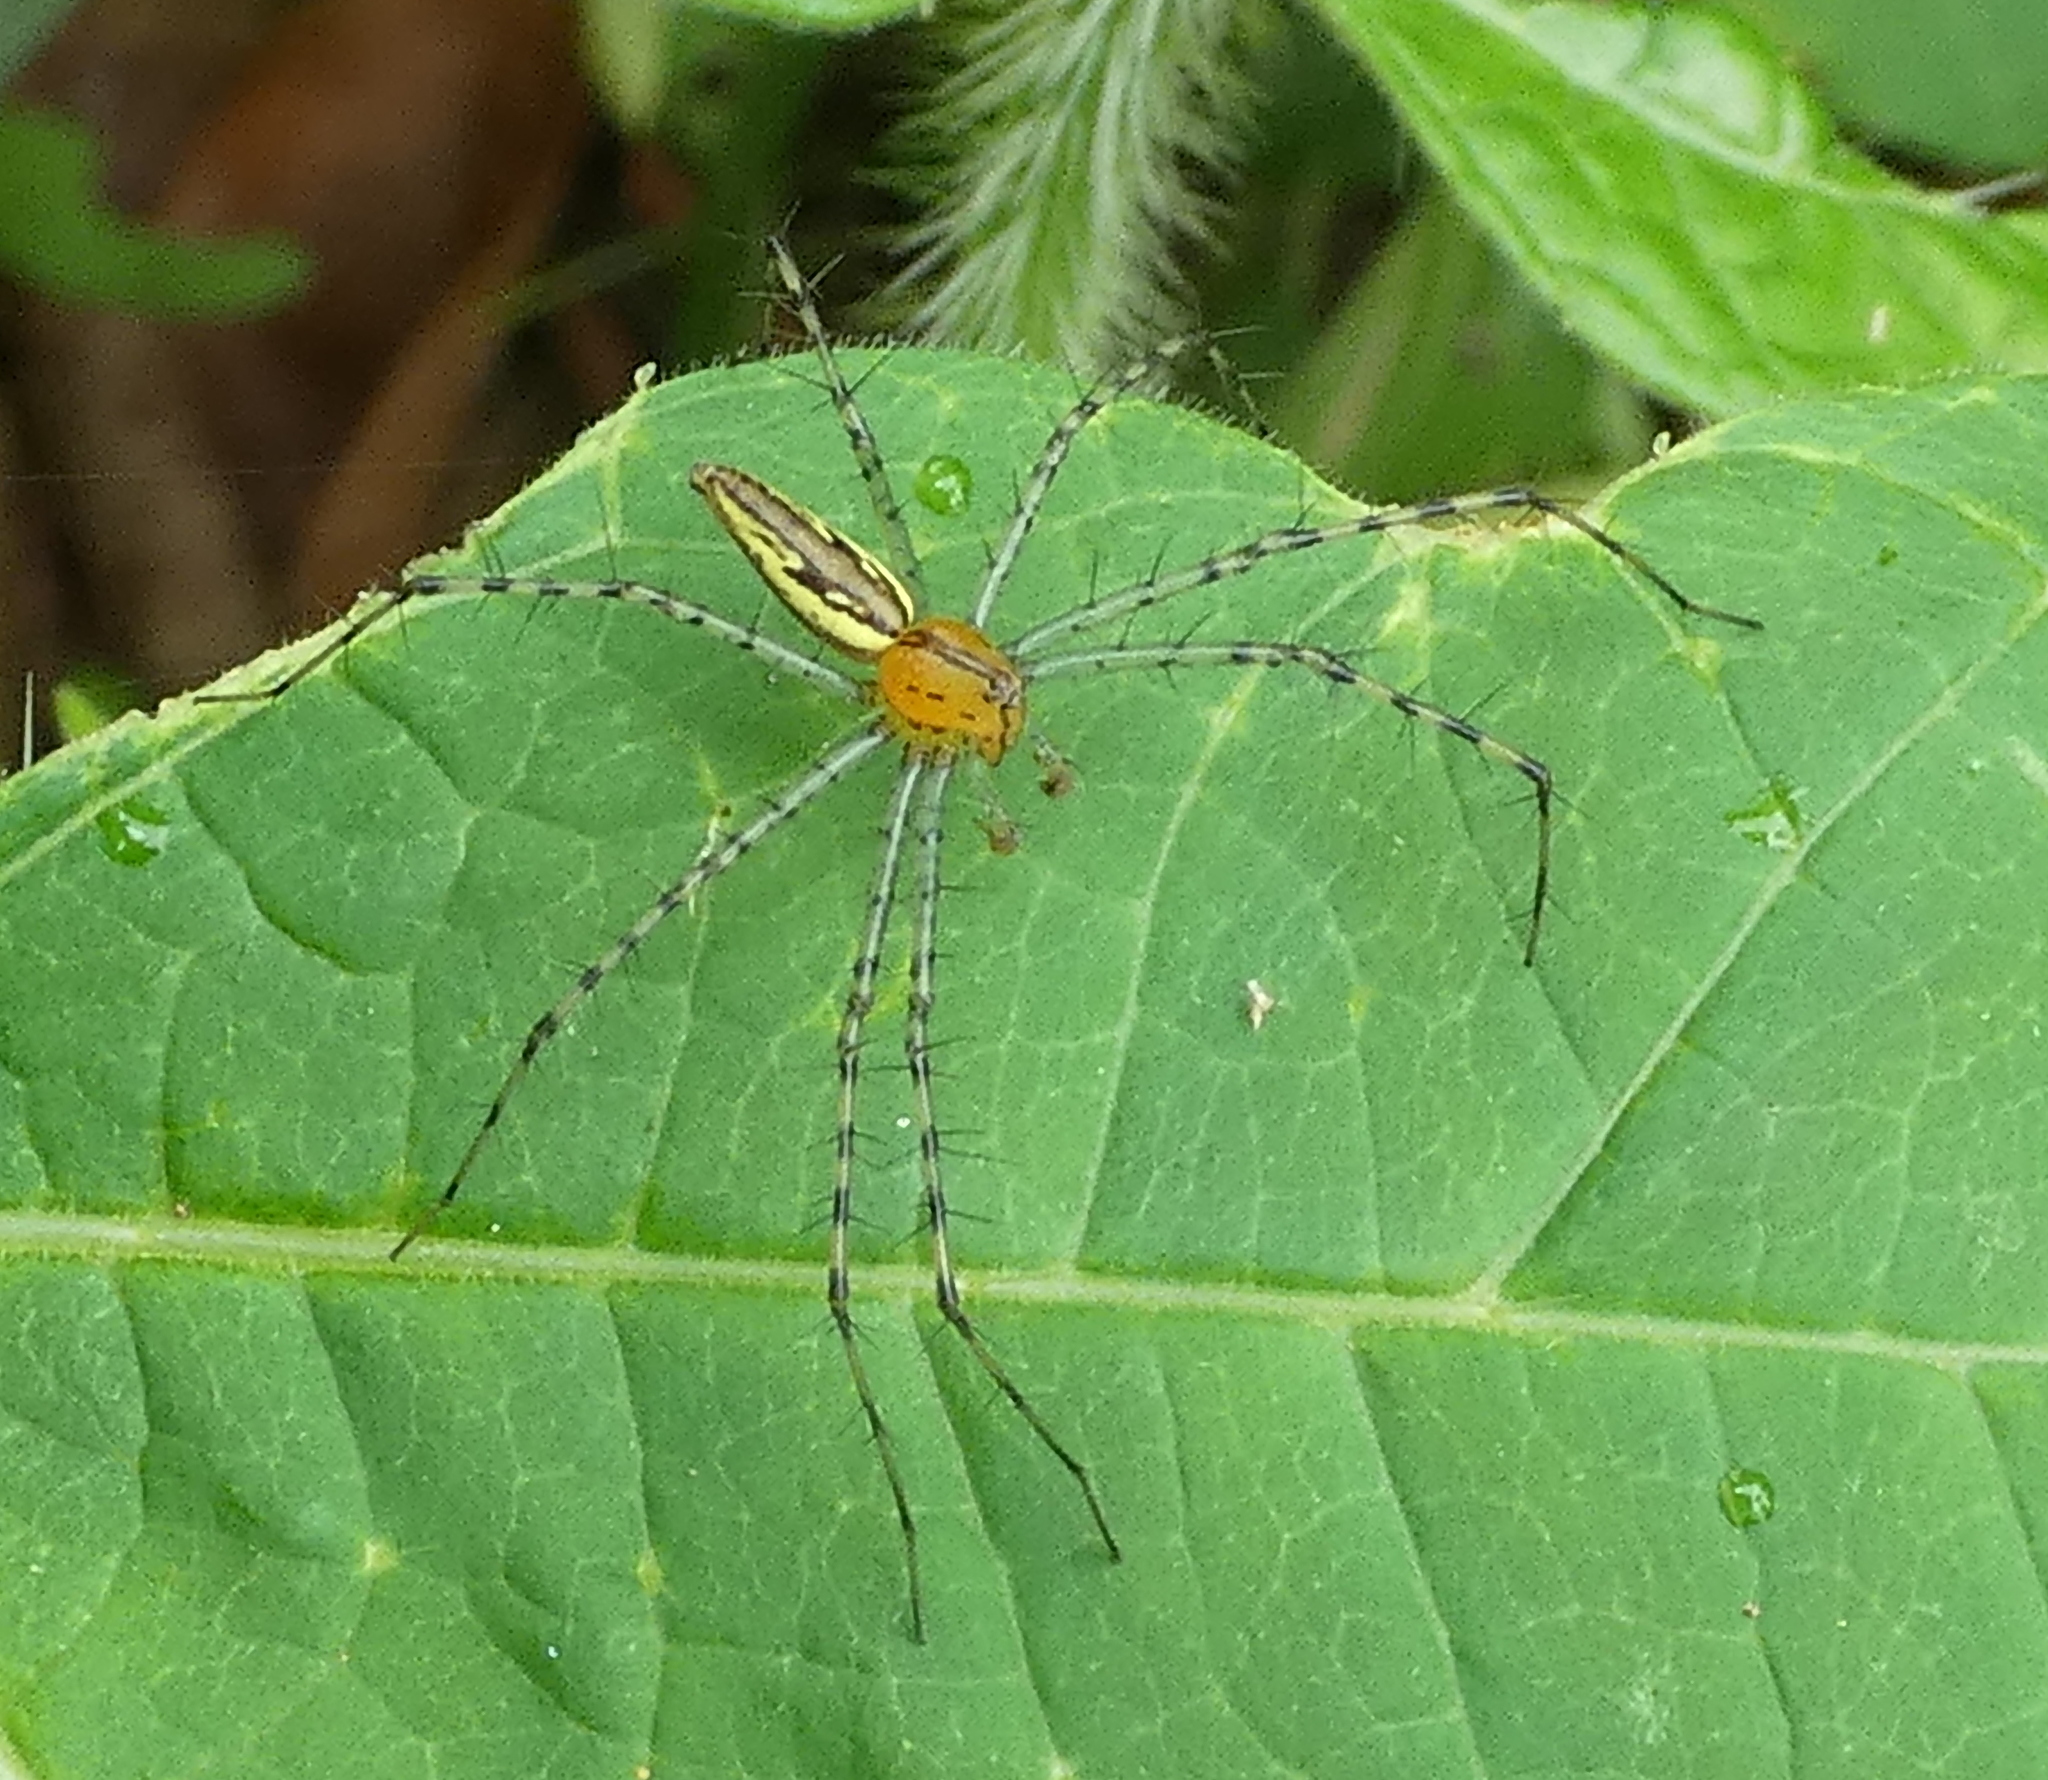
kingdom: Animalia
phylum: Arthropoda
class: Arachnida
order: Araneae
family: Oxyopidae
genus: Peucetia
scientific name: Peucetia rubrolineata
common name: Lynx spiders
